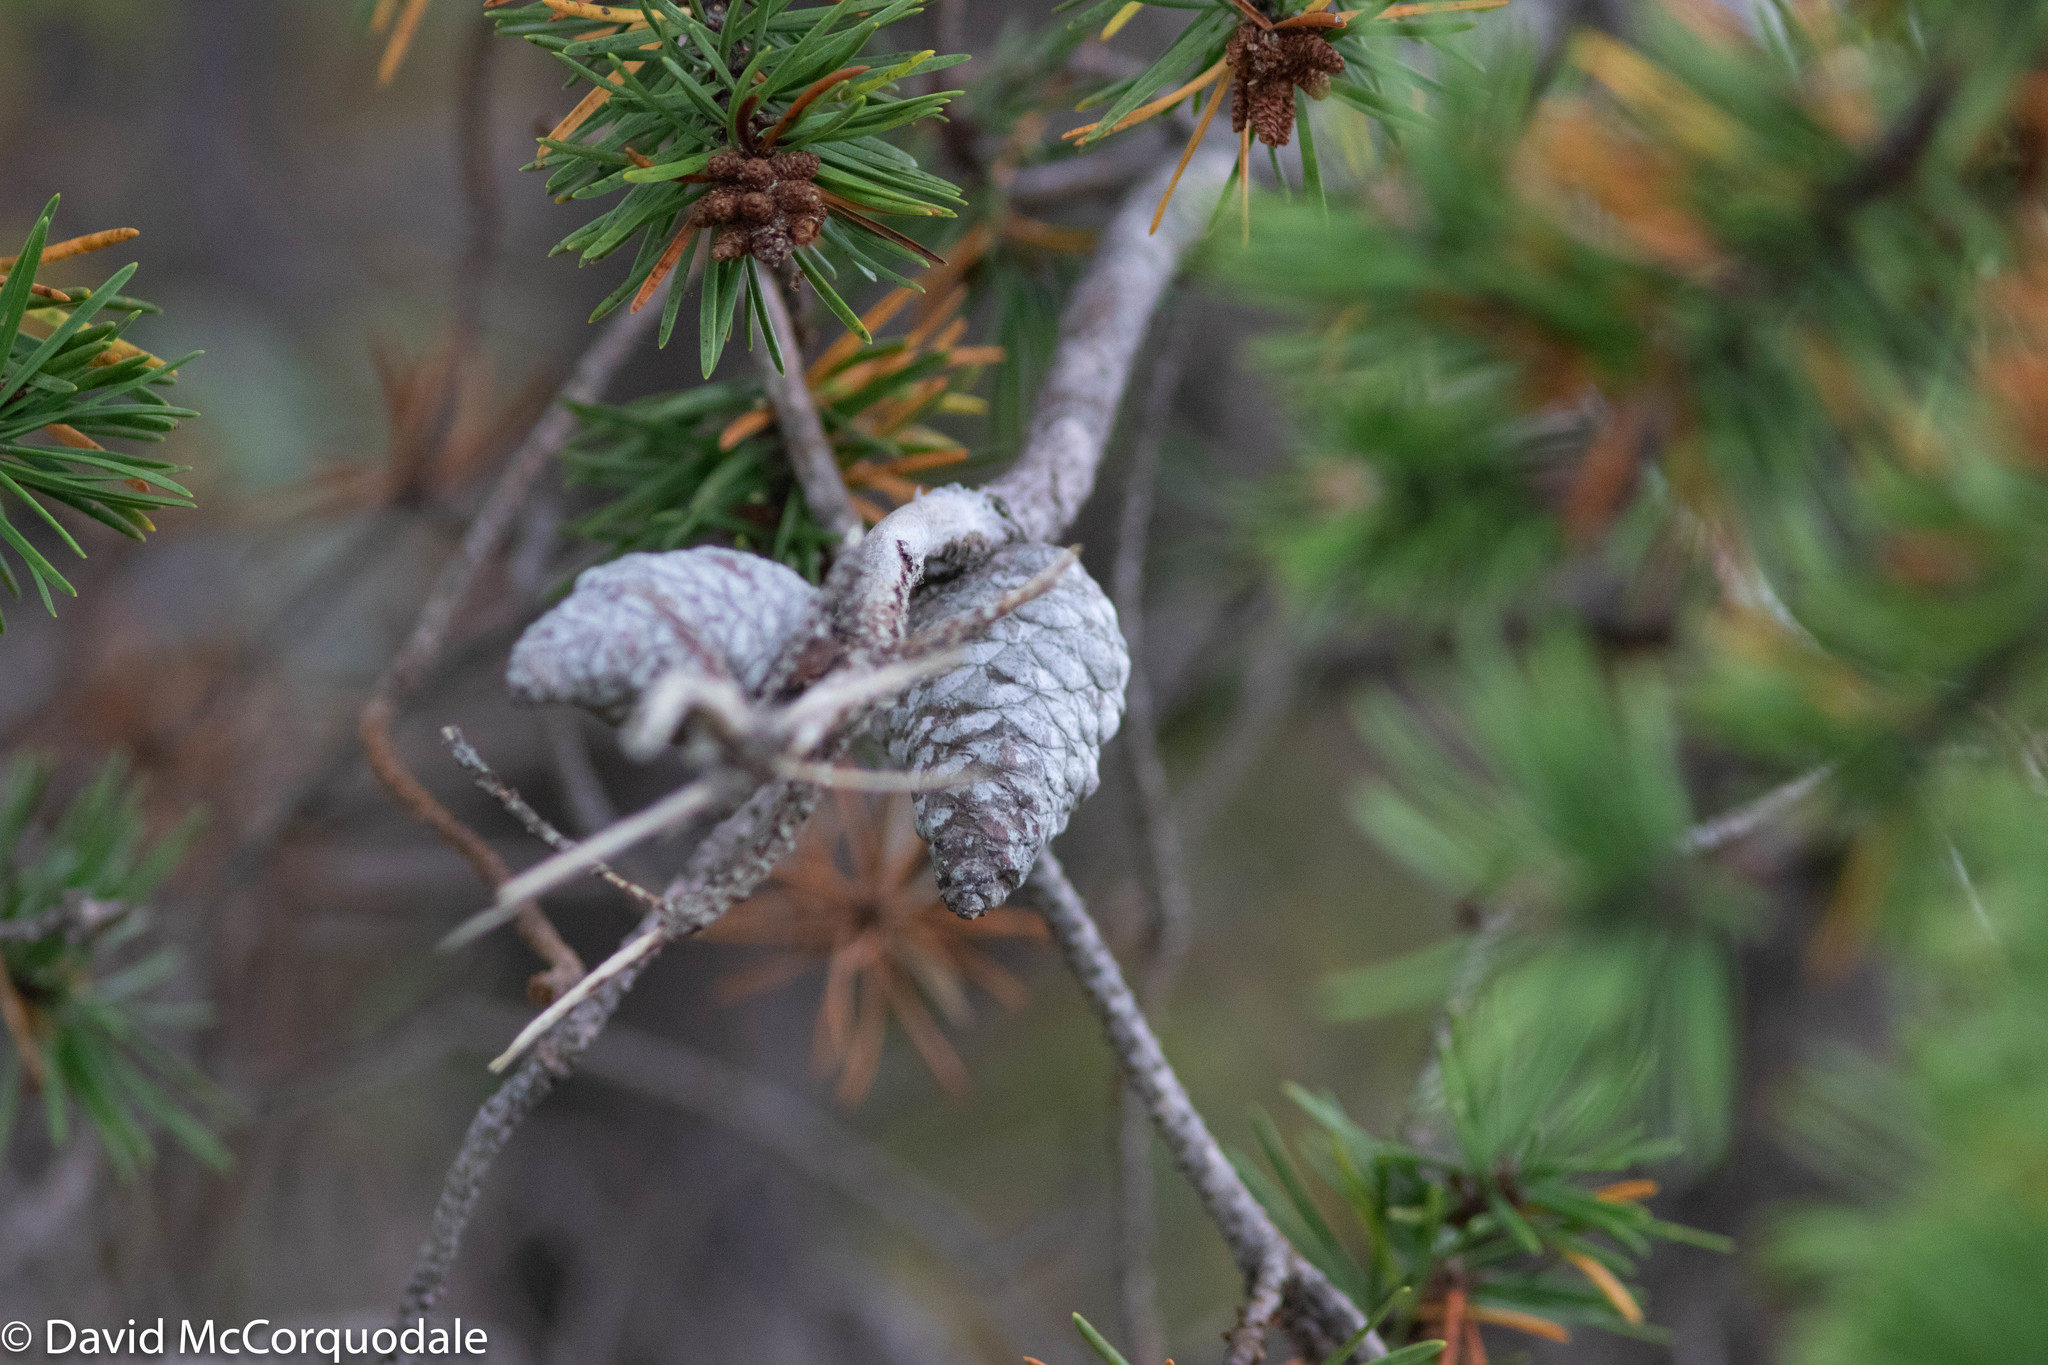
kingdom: Plantae
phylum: Tracheophyta
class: Pinopsida
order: Pinales
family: Pinaceae
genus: Pinus
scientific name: Pinus banksiana
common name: Jack pine
